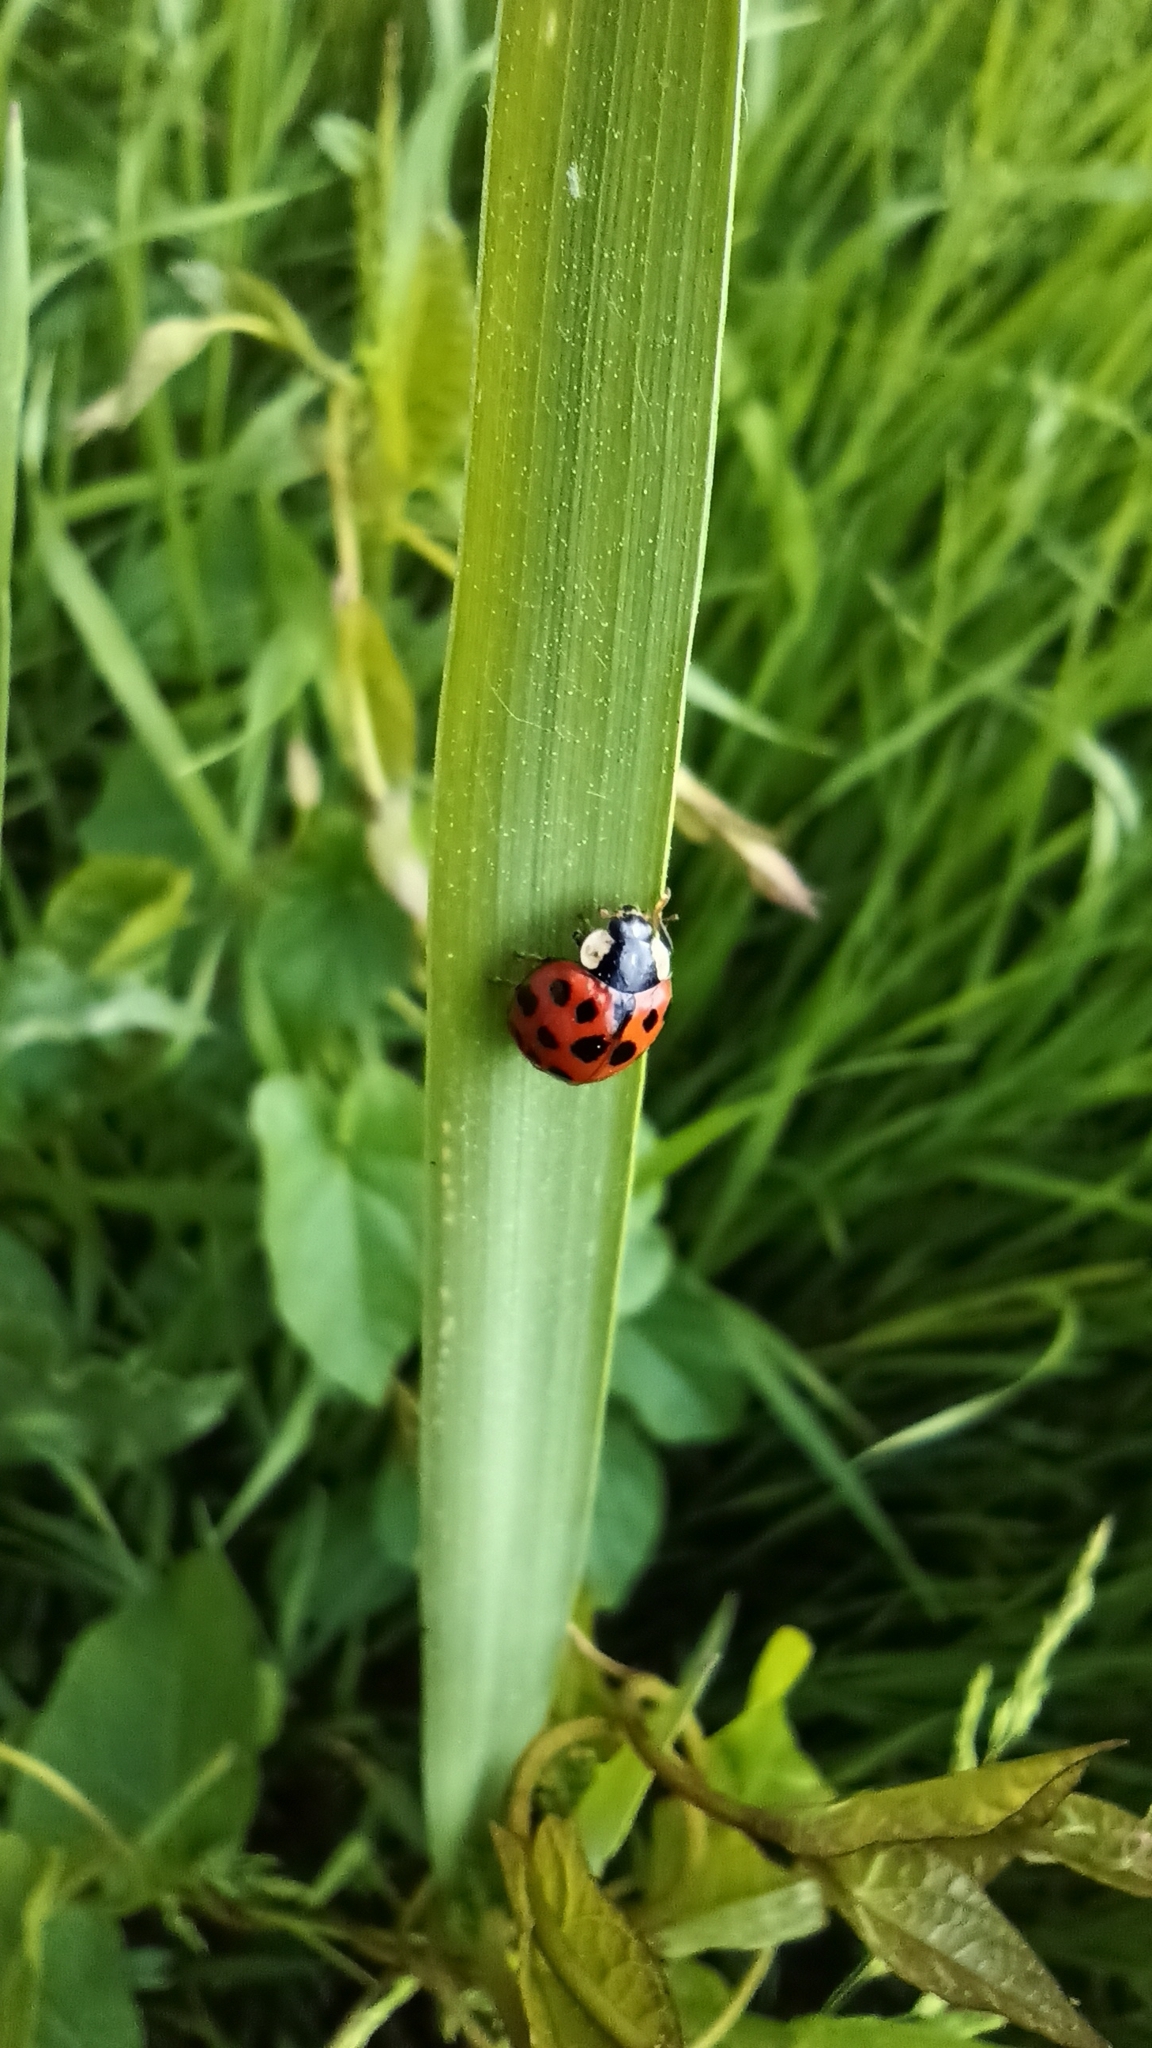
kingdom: Animalia
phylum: Arthropoda
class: Insecta
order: Coleoptera
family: Coccinellidae
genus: Harmonia
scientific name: Harmonia axyridis
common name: Harlequin ladybird
